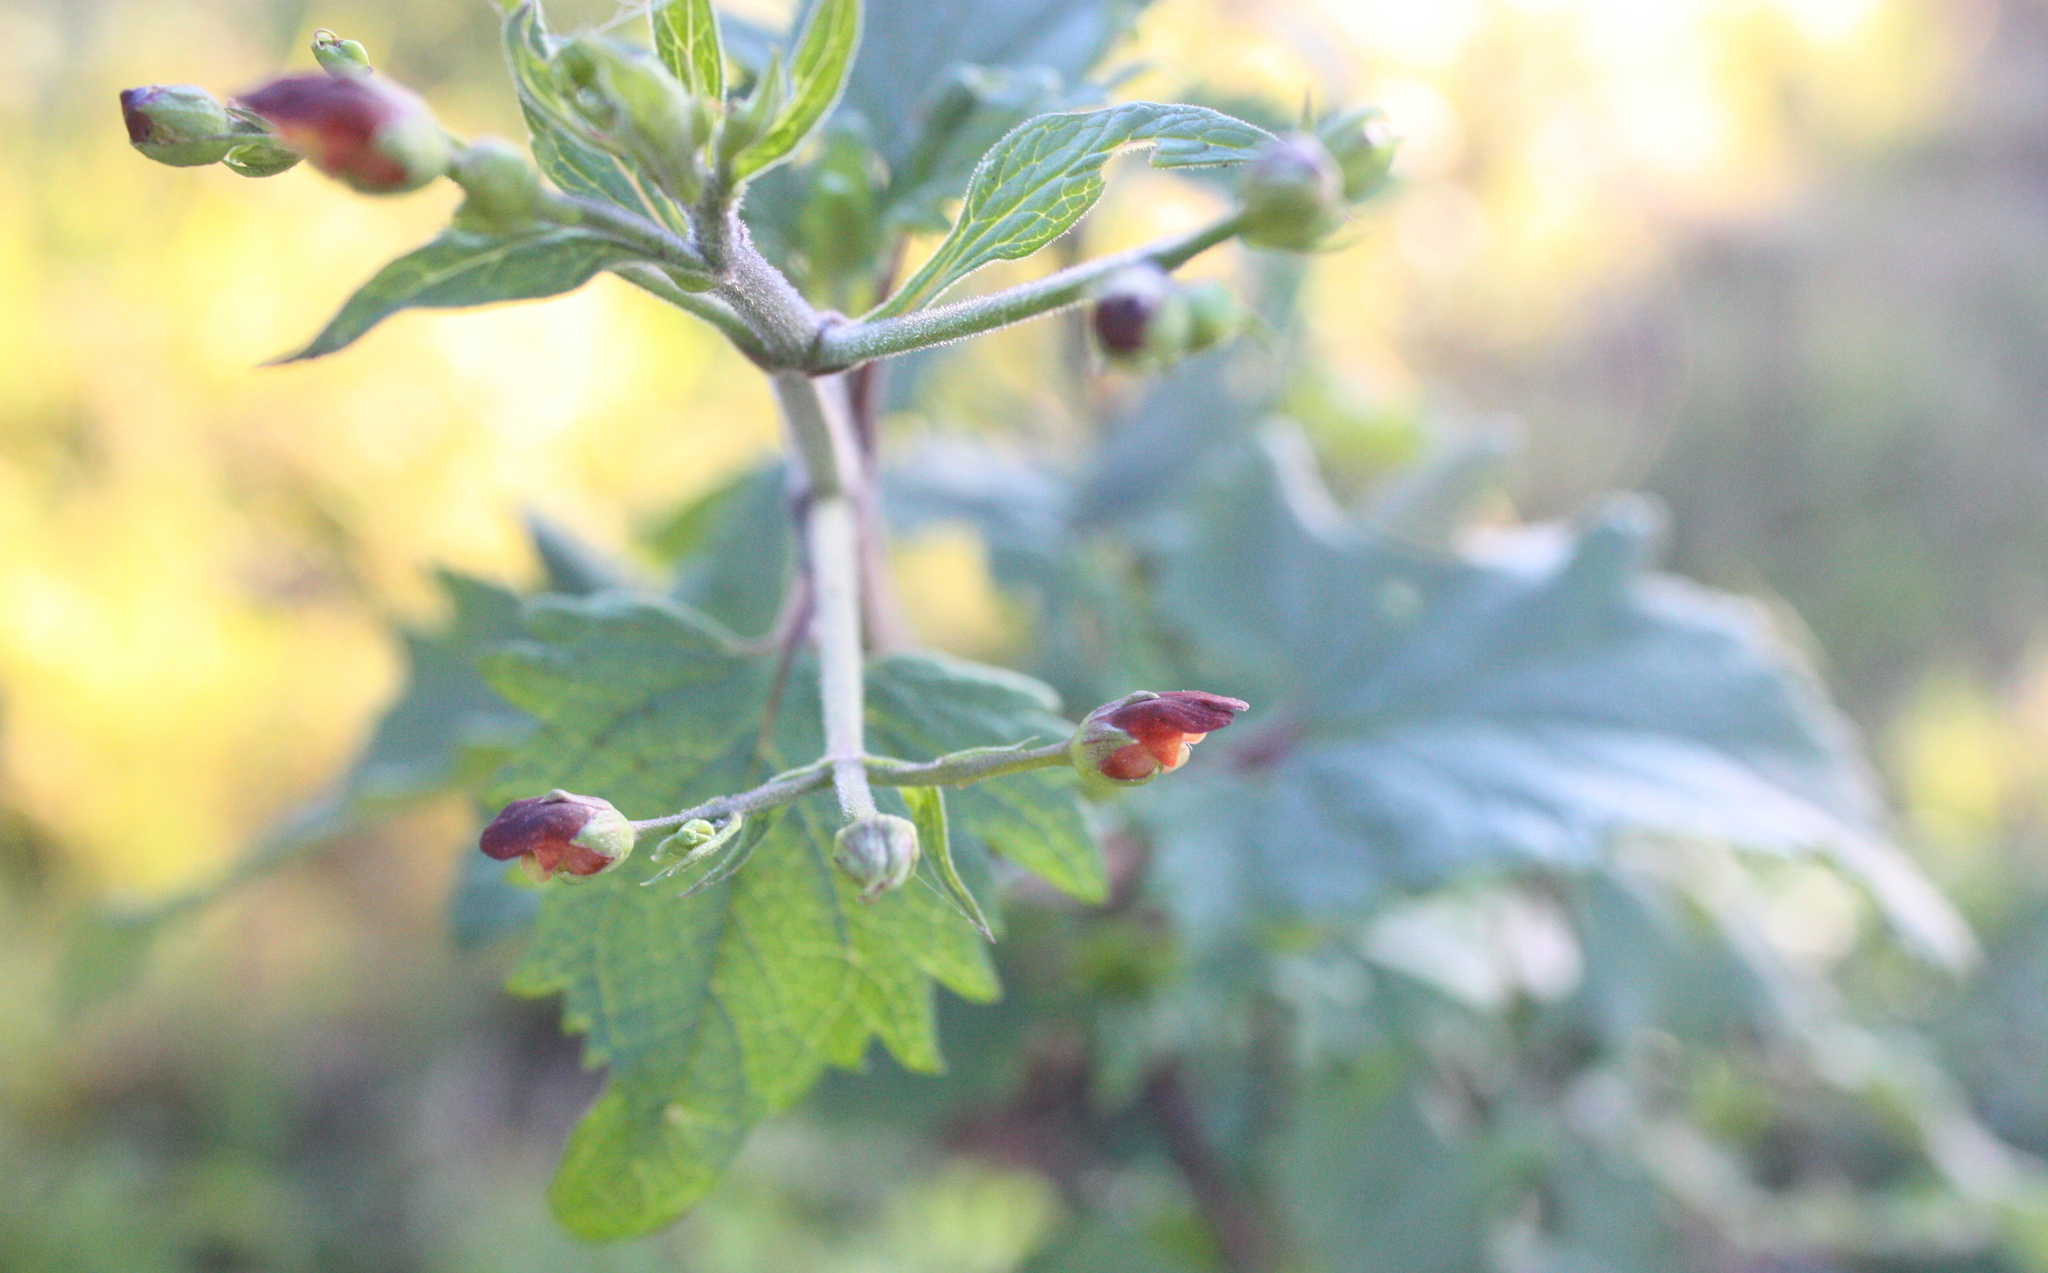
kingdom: Plantae
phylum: Tracheophyta
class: Magnoliopsida
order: Lamiales
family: Scrophulariaceae
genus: Scrophularia
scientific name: Scrophularia californica
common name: California figwort
